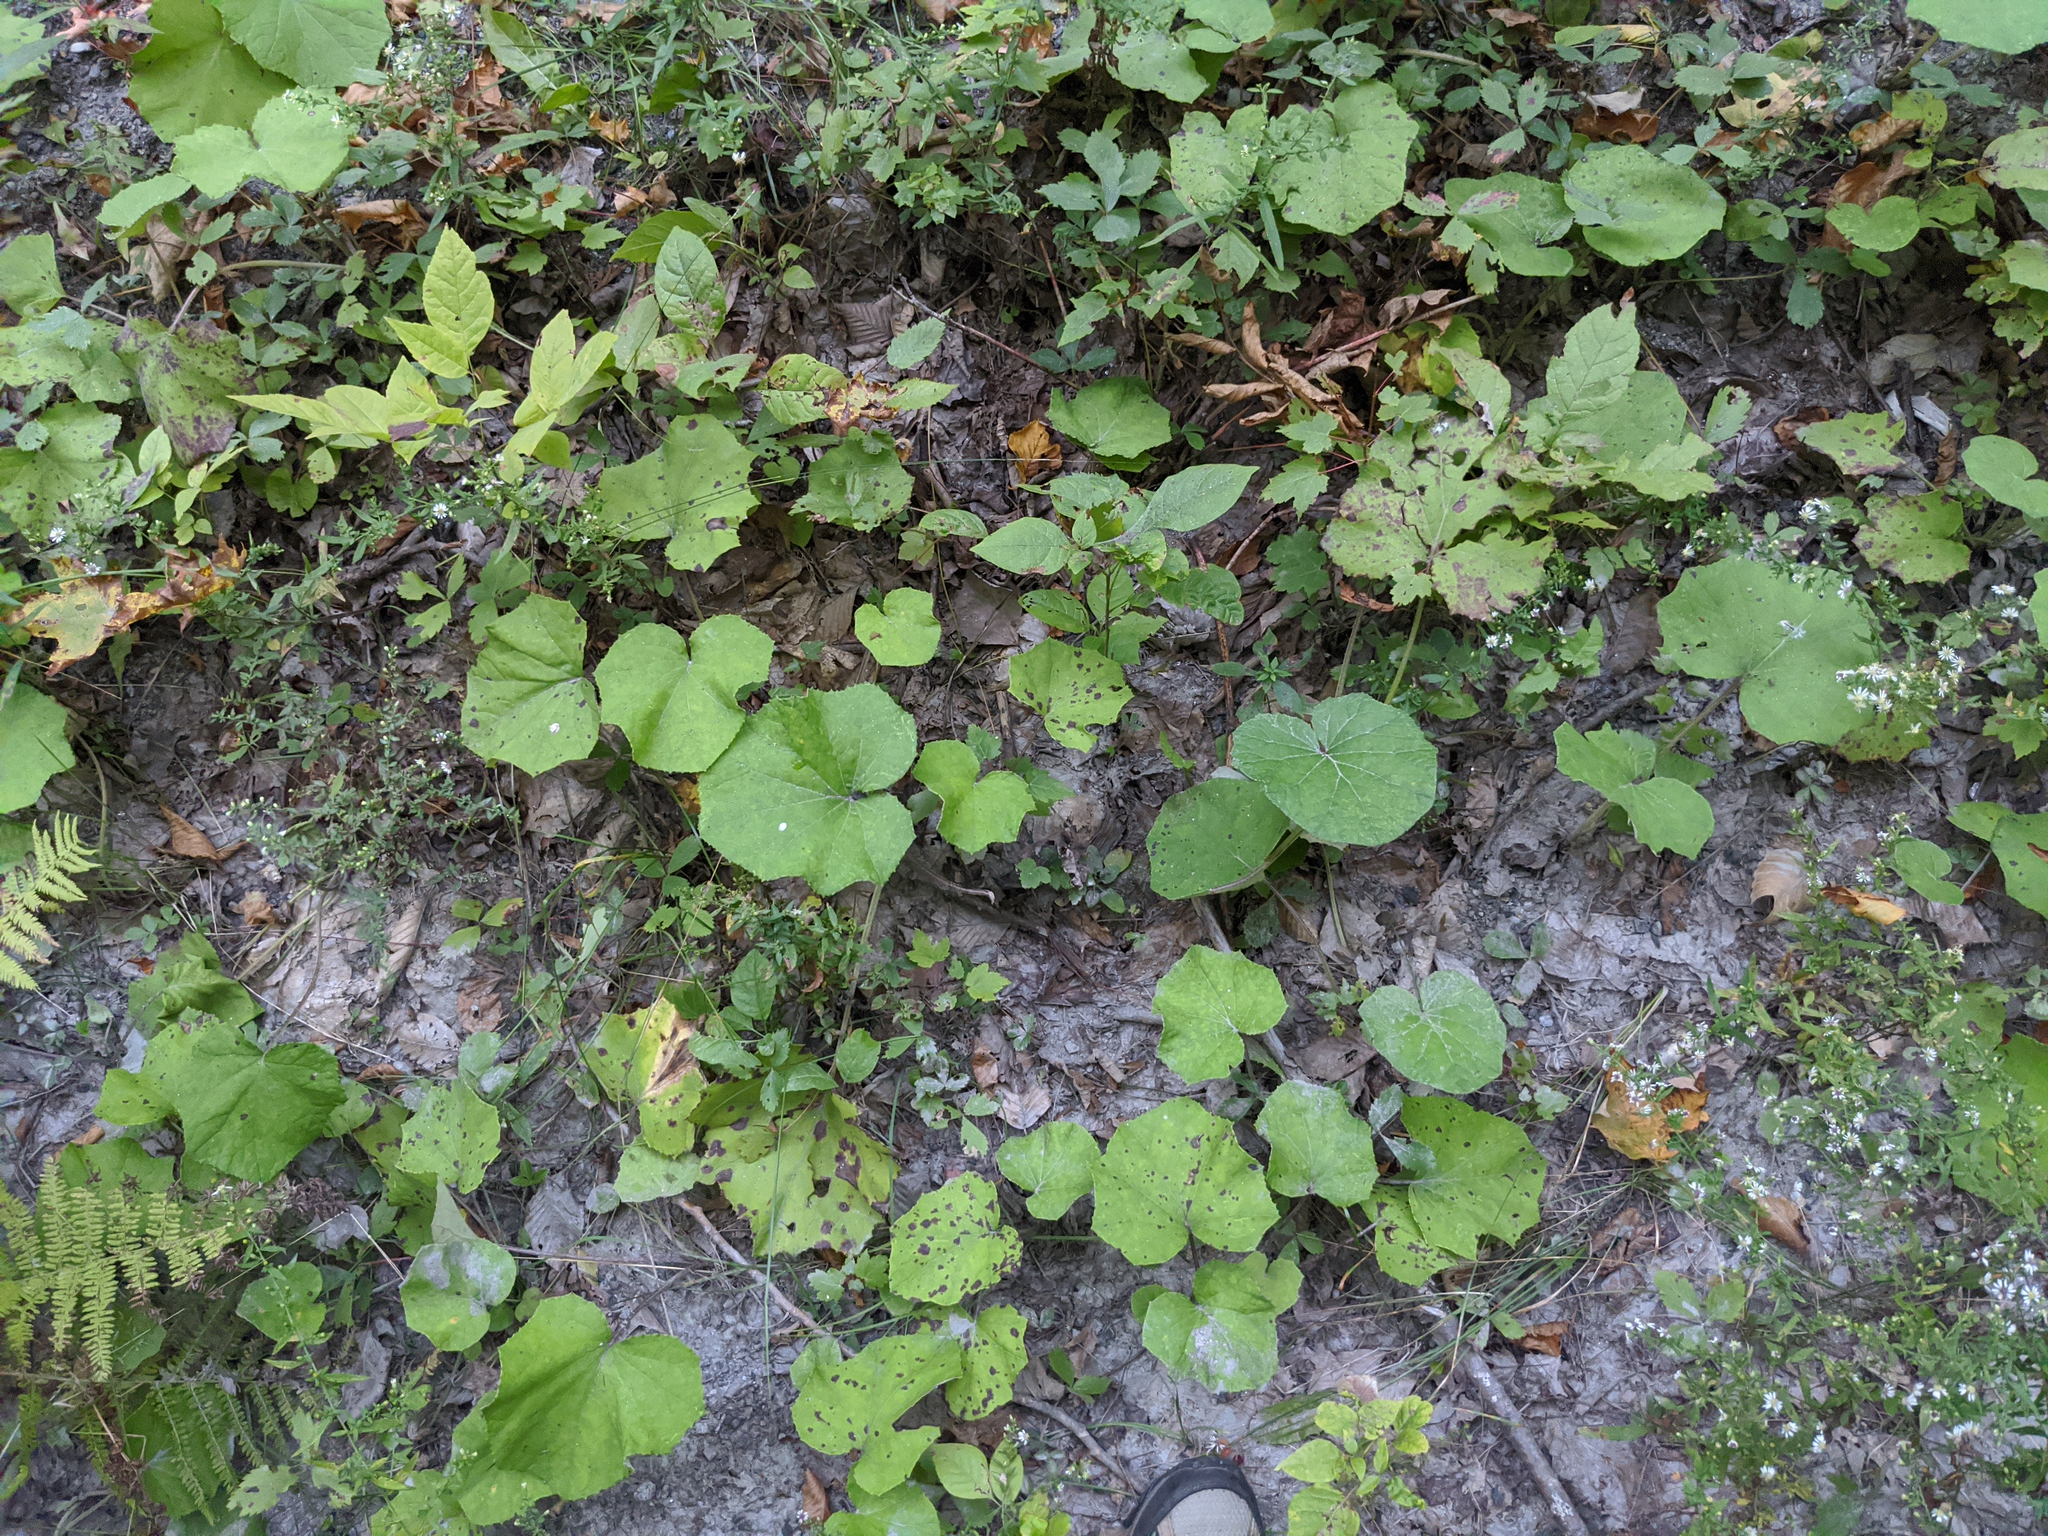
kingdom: Plantae
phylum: Tracheophyta
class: Magnoliopsida
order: Asterales
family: Asteraceae
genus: Tussilago
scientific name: Tussilago farfara
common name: Coltsfoot
